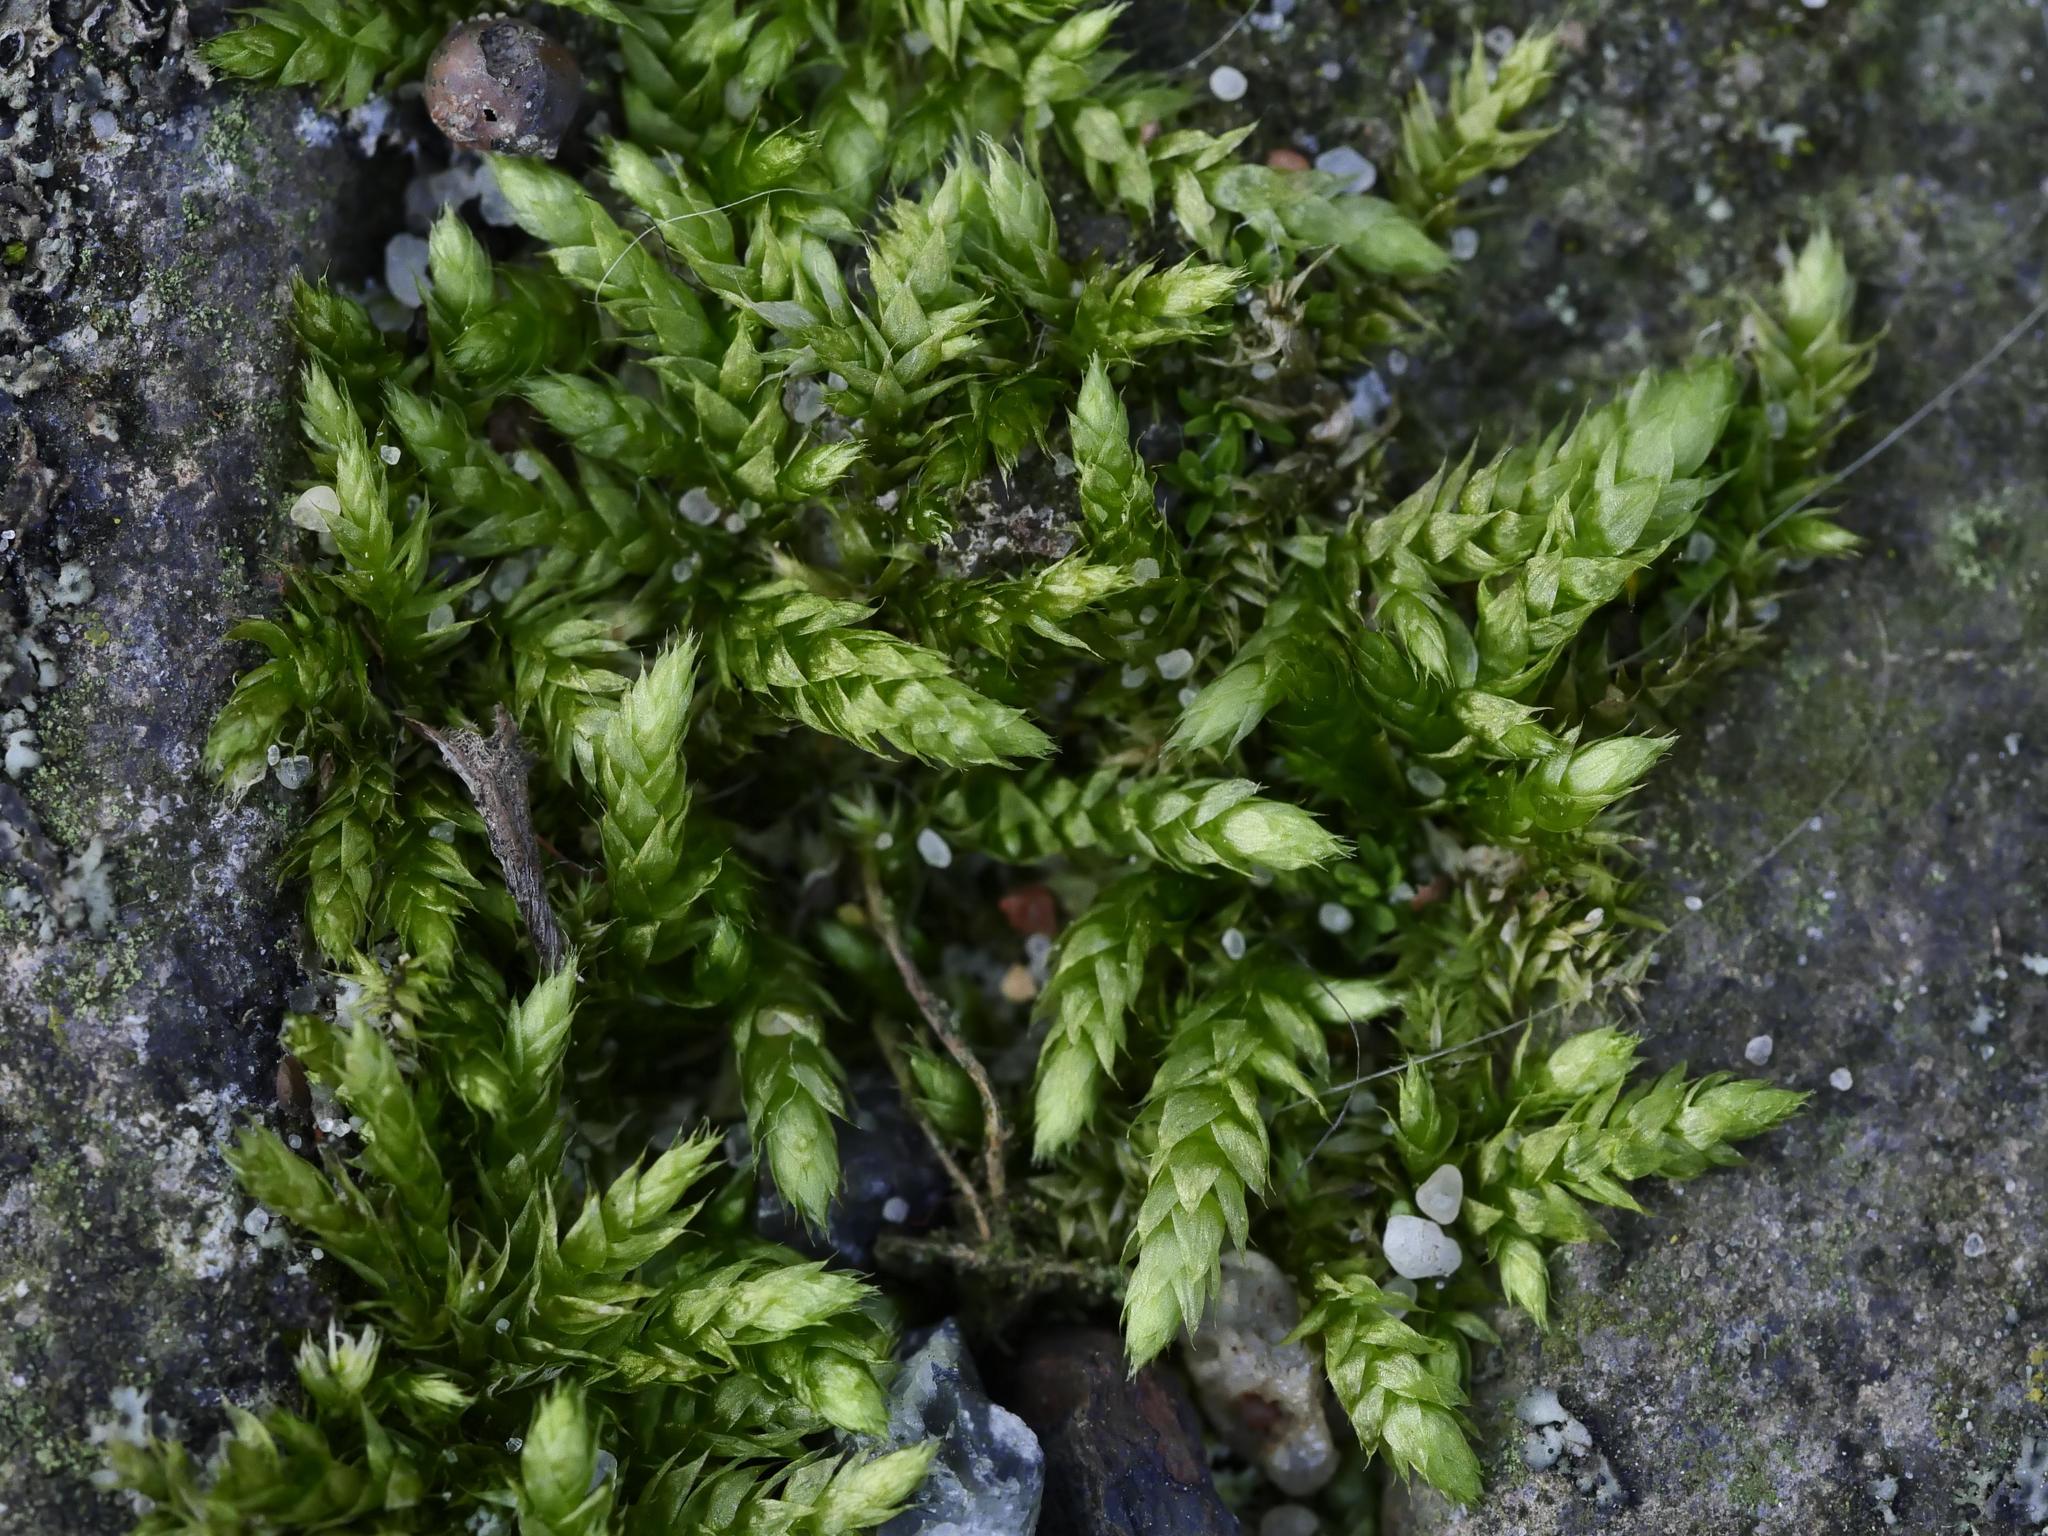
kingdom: Plantae
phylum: Bryophyta
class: Bryopsida
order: Hypnales
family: Brachytheciaceae
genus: Brachythecium
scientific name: Brachythecium rutabulum
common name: Rough-stalked feather-moss
